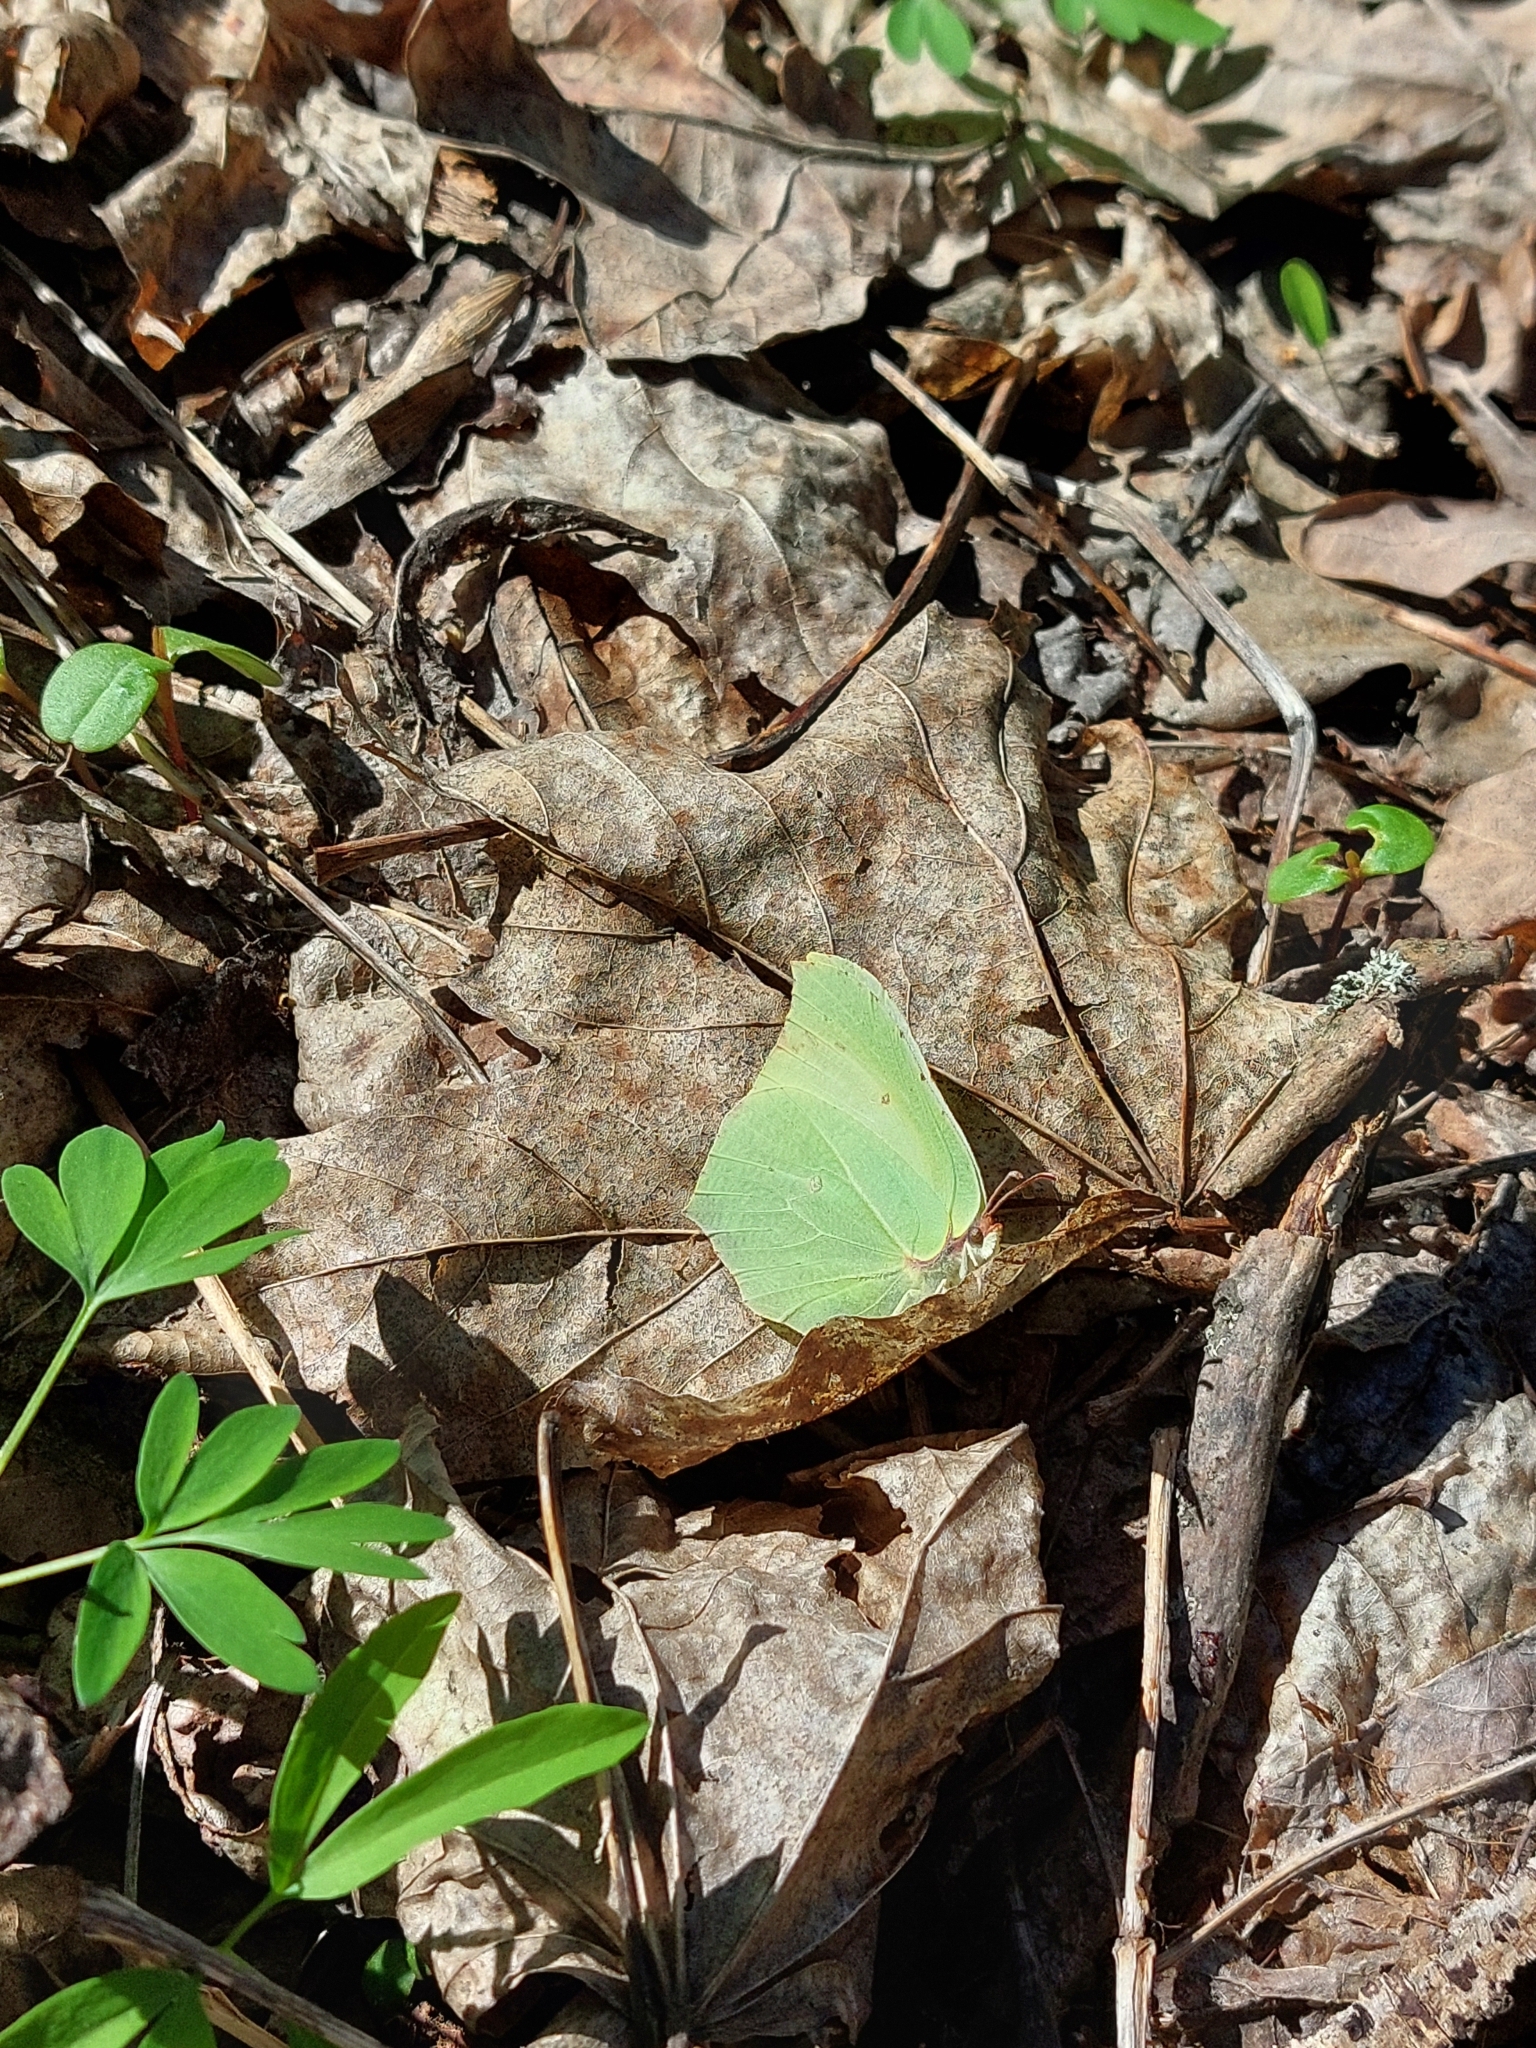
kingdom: Animalia
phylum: Arthropoda
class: Insecta
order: Lepidoptera
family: Pieridae
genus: Gonepteryx
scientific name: Gonepteryx rhamni
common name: Brimstone
